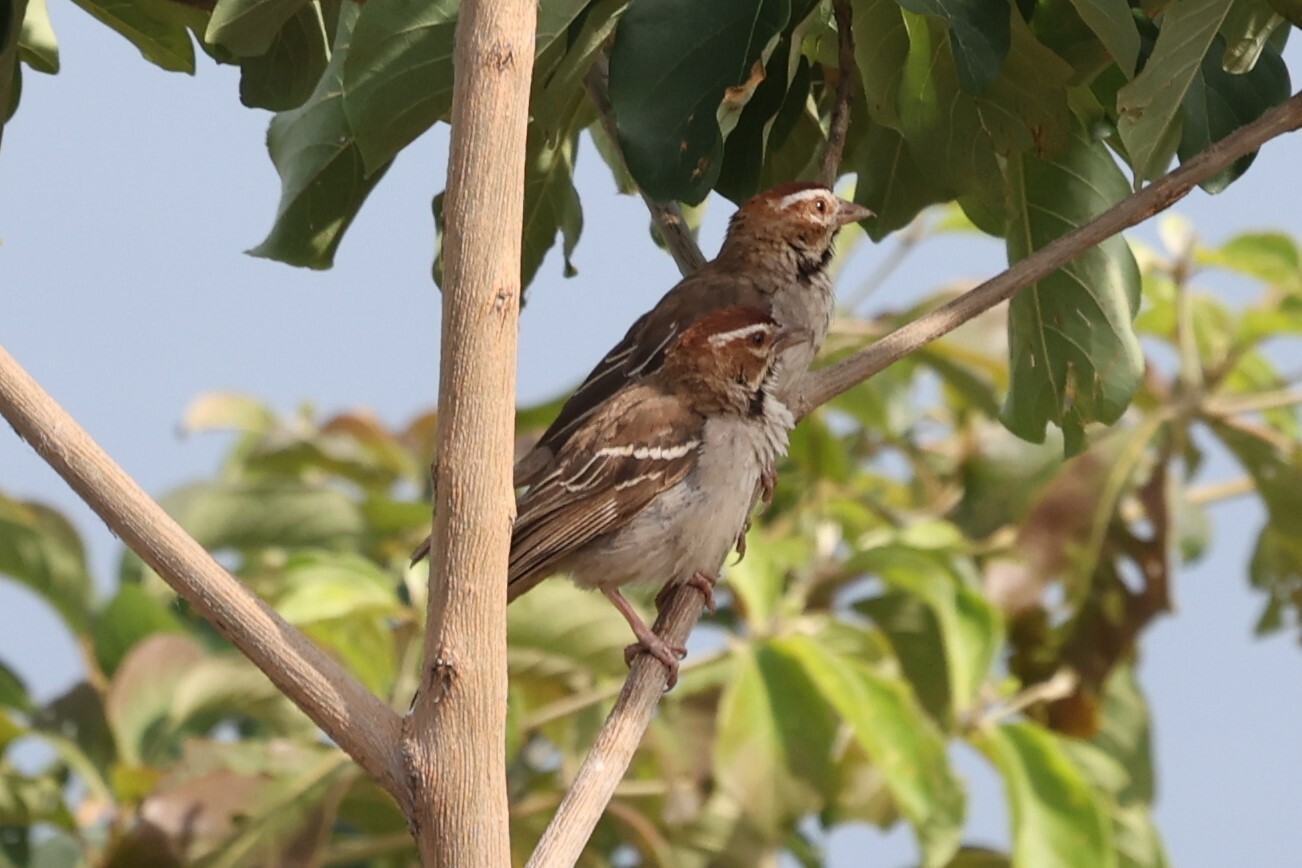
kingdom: Animalia
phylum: Chordata
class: Aves
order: Passeriformes
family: Passeridae
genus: Plocepasser
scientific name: Plocepasser superciliosus
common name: Chestnut-crowned sparrow-weaver
